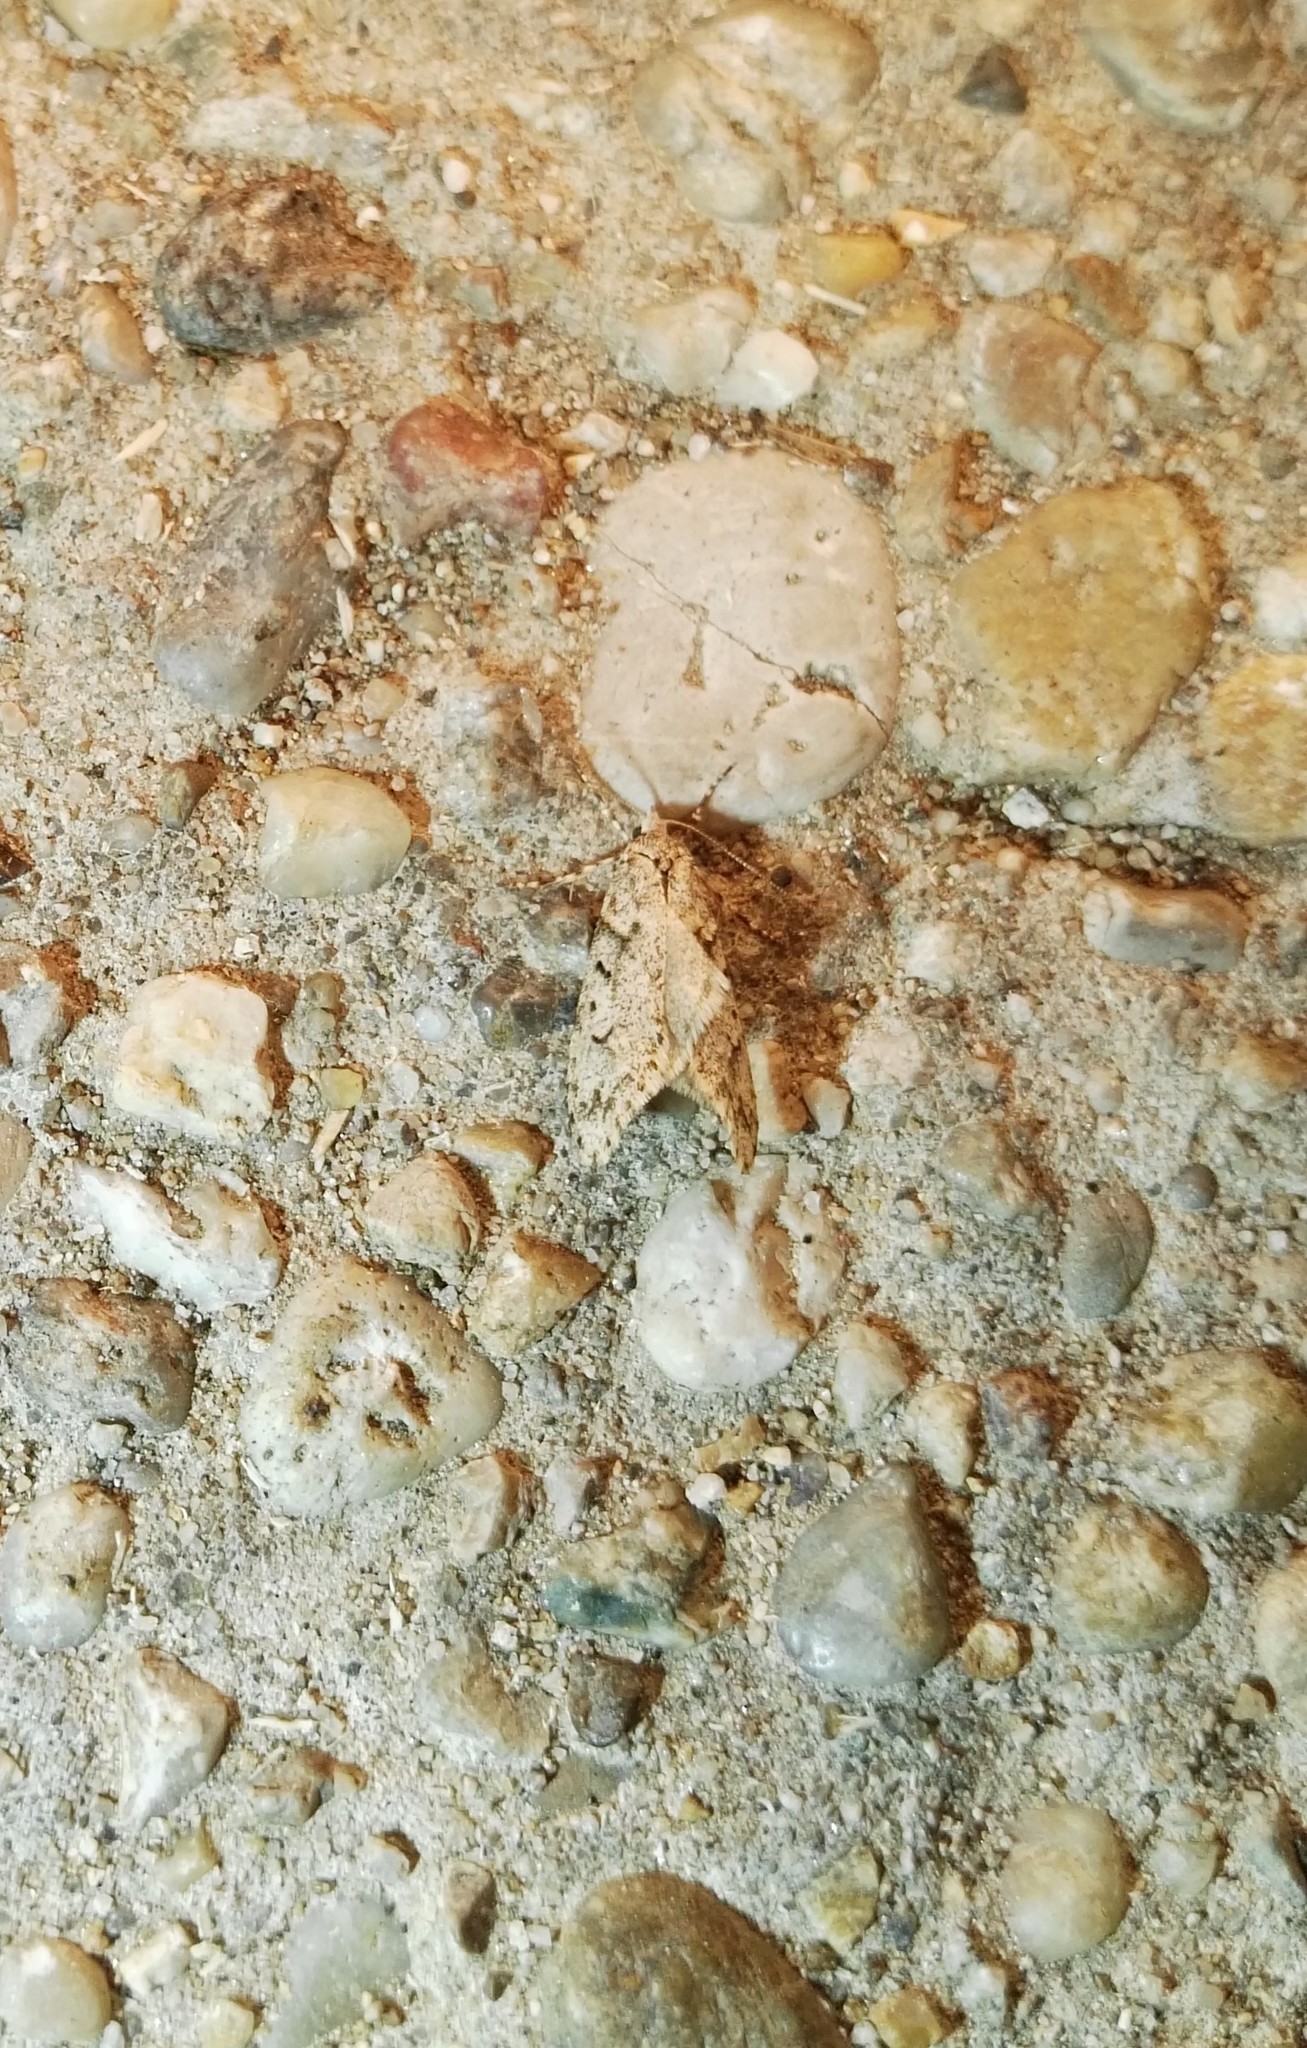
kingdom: Animalia
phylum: Arthropoda
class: Insecta
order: Lepidoptera
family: Lypusidae
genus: Diurnea
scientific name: Diurnea fagella
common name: March tubic
